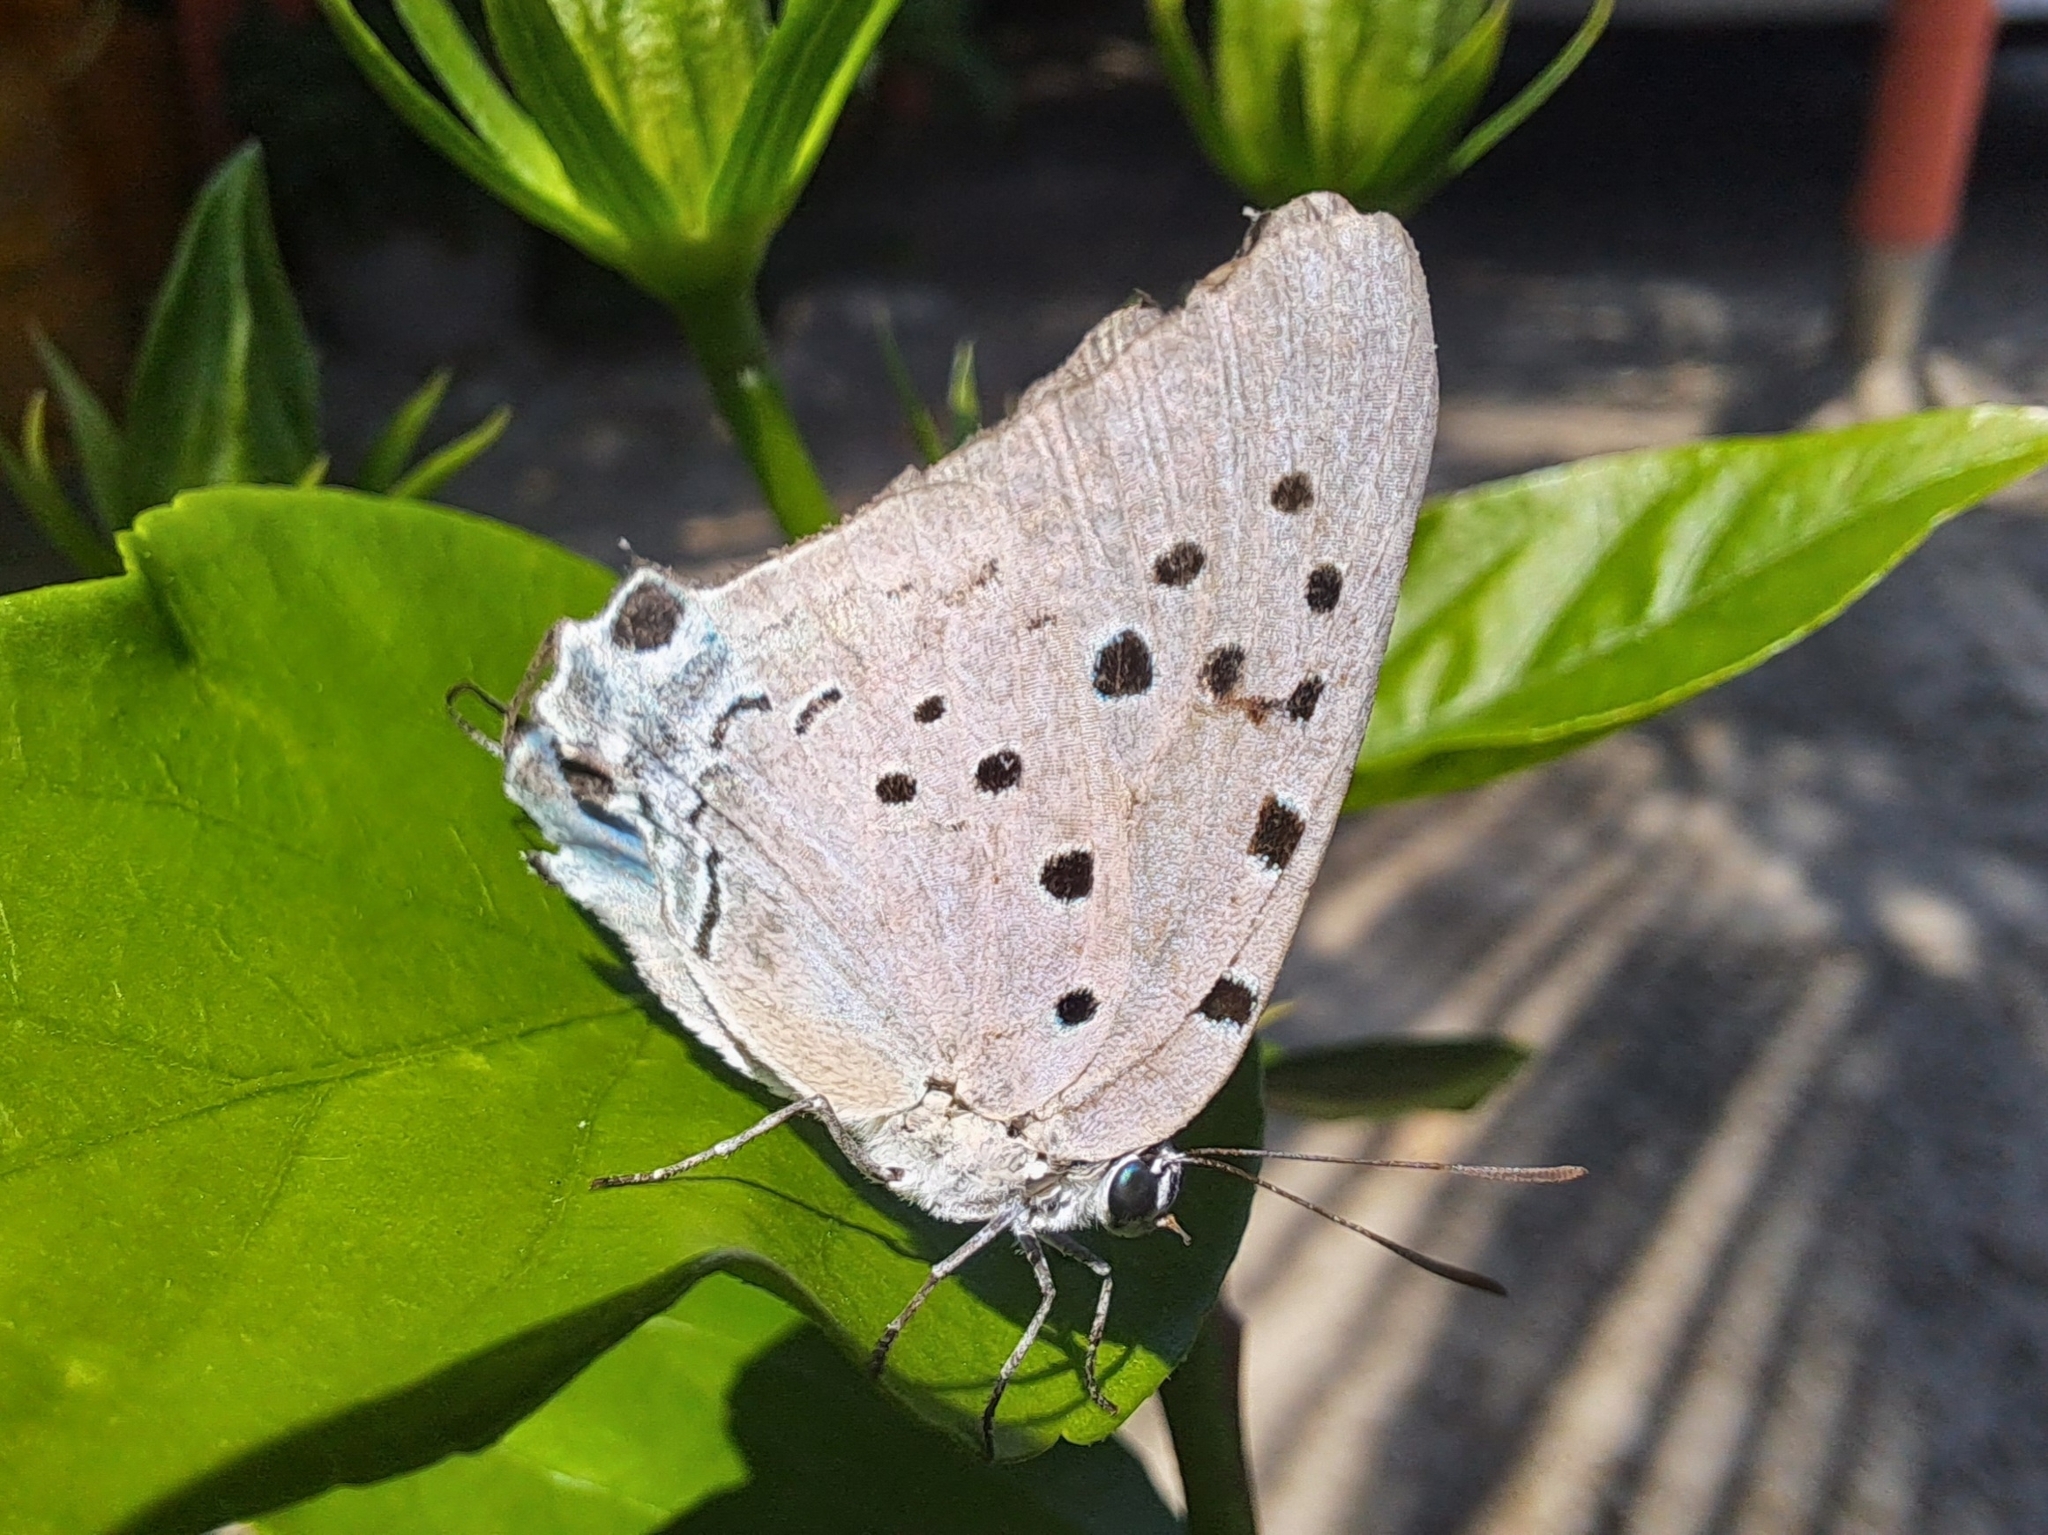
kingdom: Animalia
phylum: Arthropoda
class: Insecta
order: Lepidoptera
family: Lycaenidae
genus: Pseudolycaena
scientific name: Pseudolycaena damo
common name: Sky-blue hairstreak
